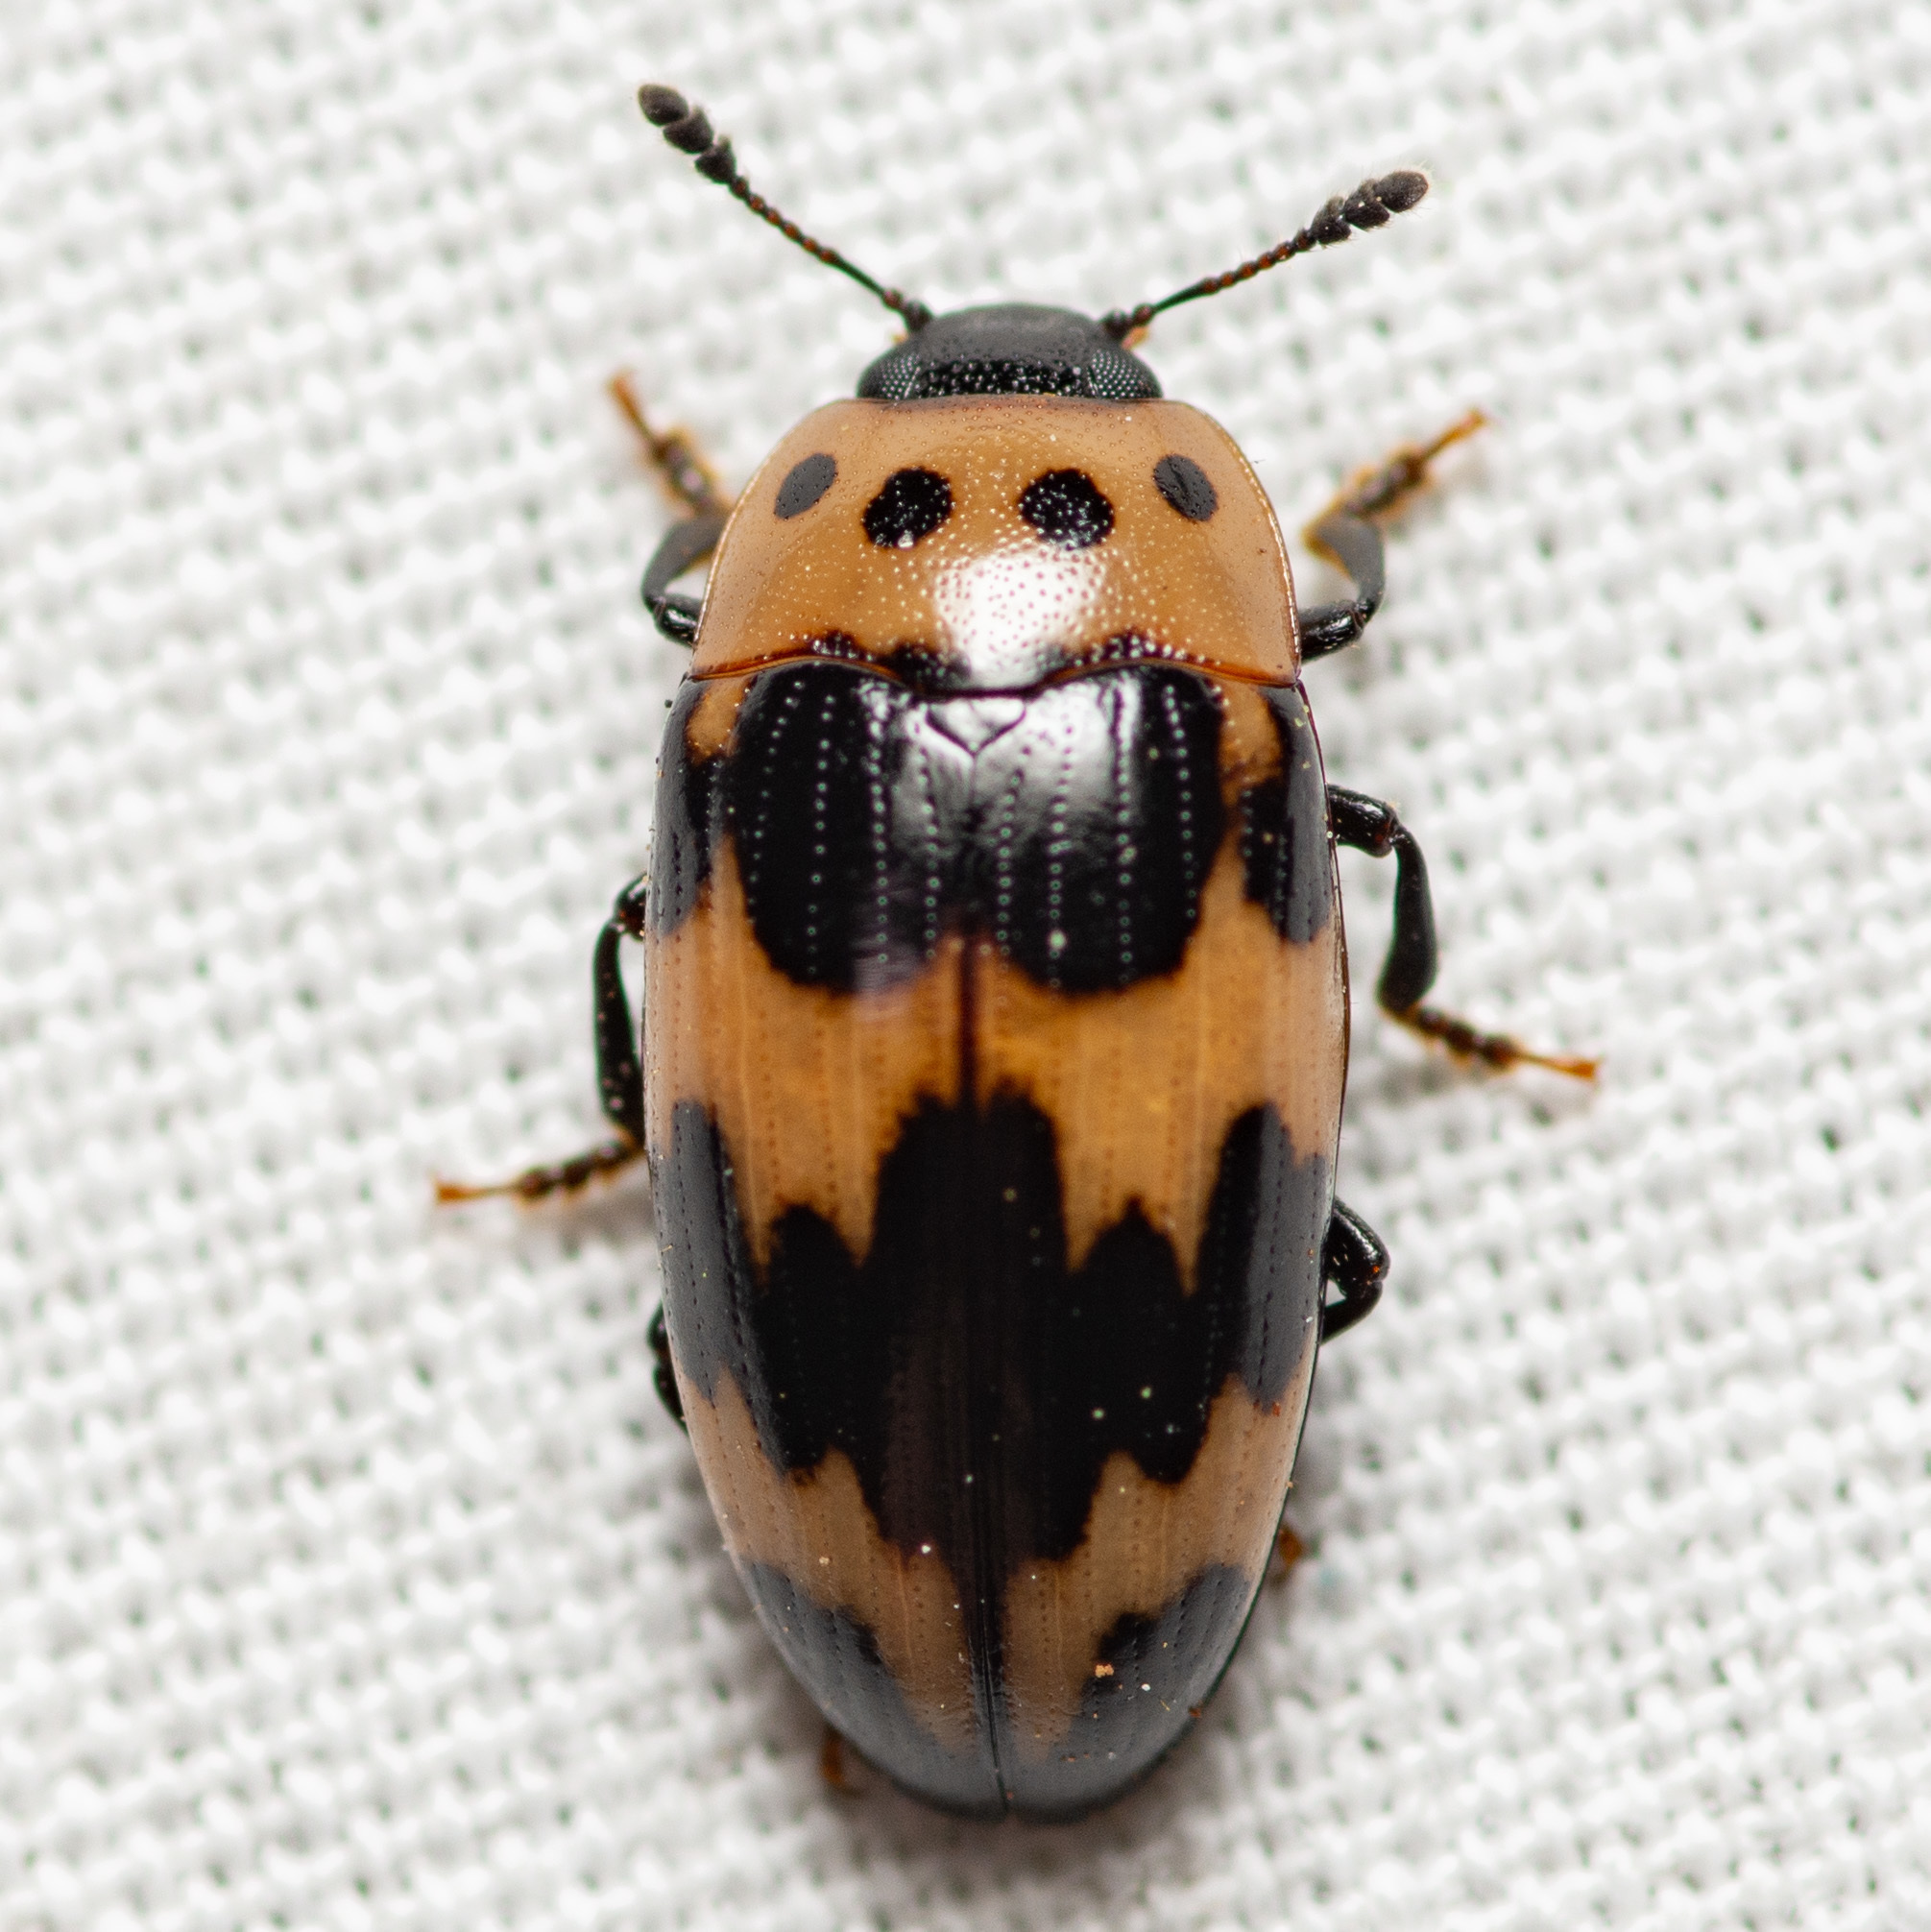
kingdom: Animalia
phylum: Arthropoda
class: Insecta
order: Coleoptera
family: Erotylidae
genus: Ischyrus
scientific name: Ischyrus quadripunctatus
